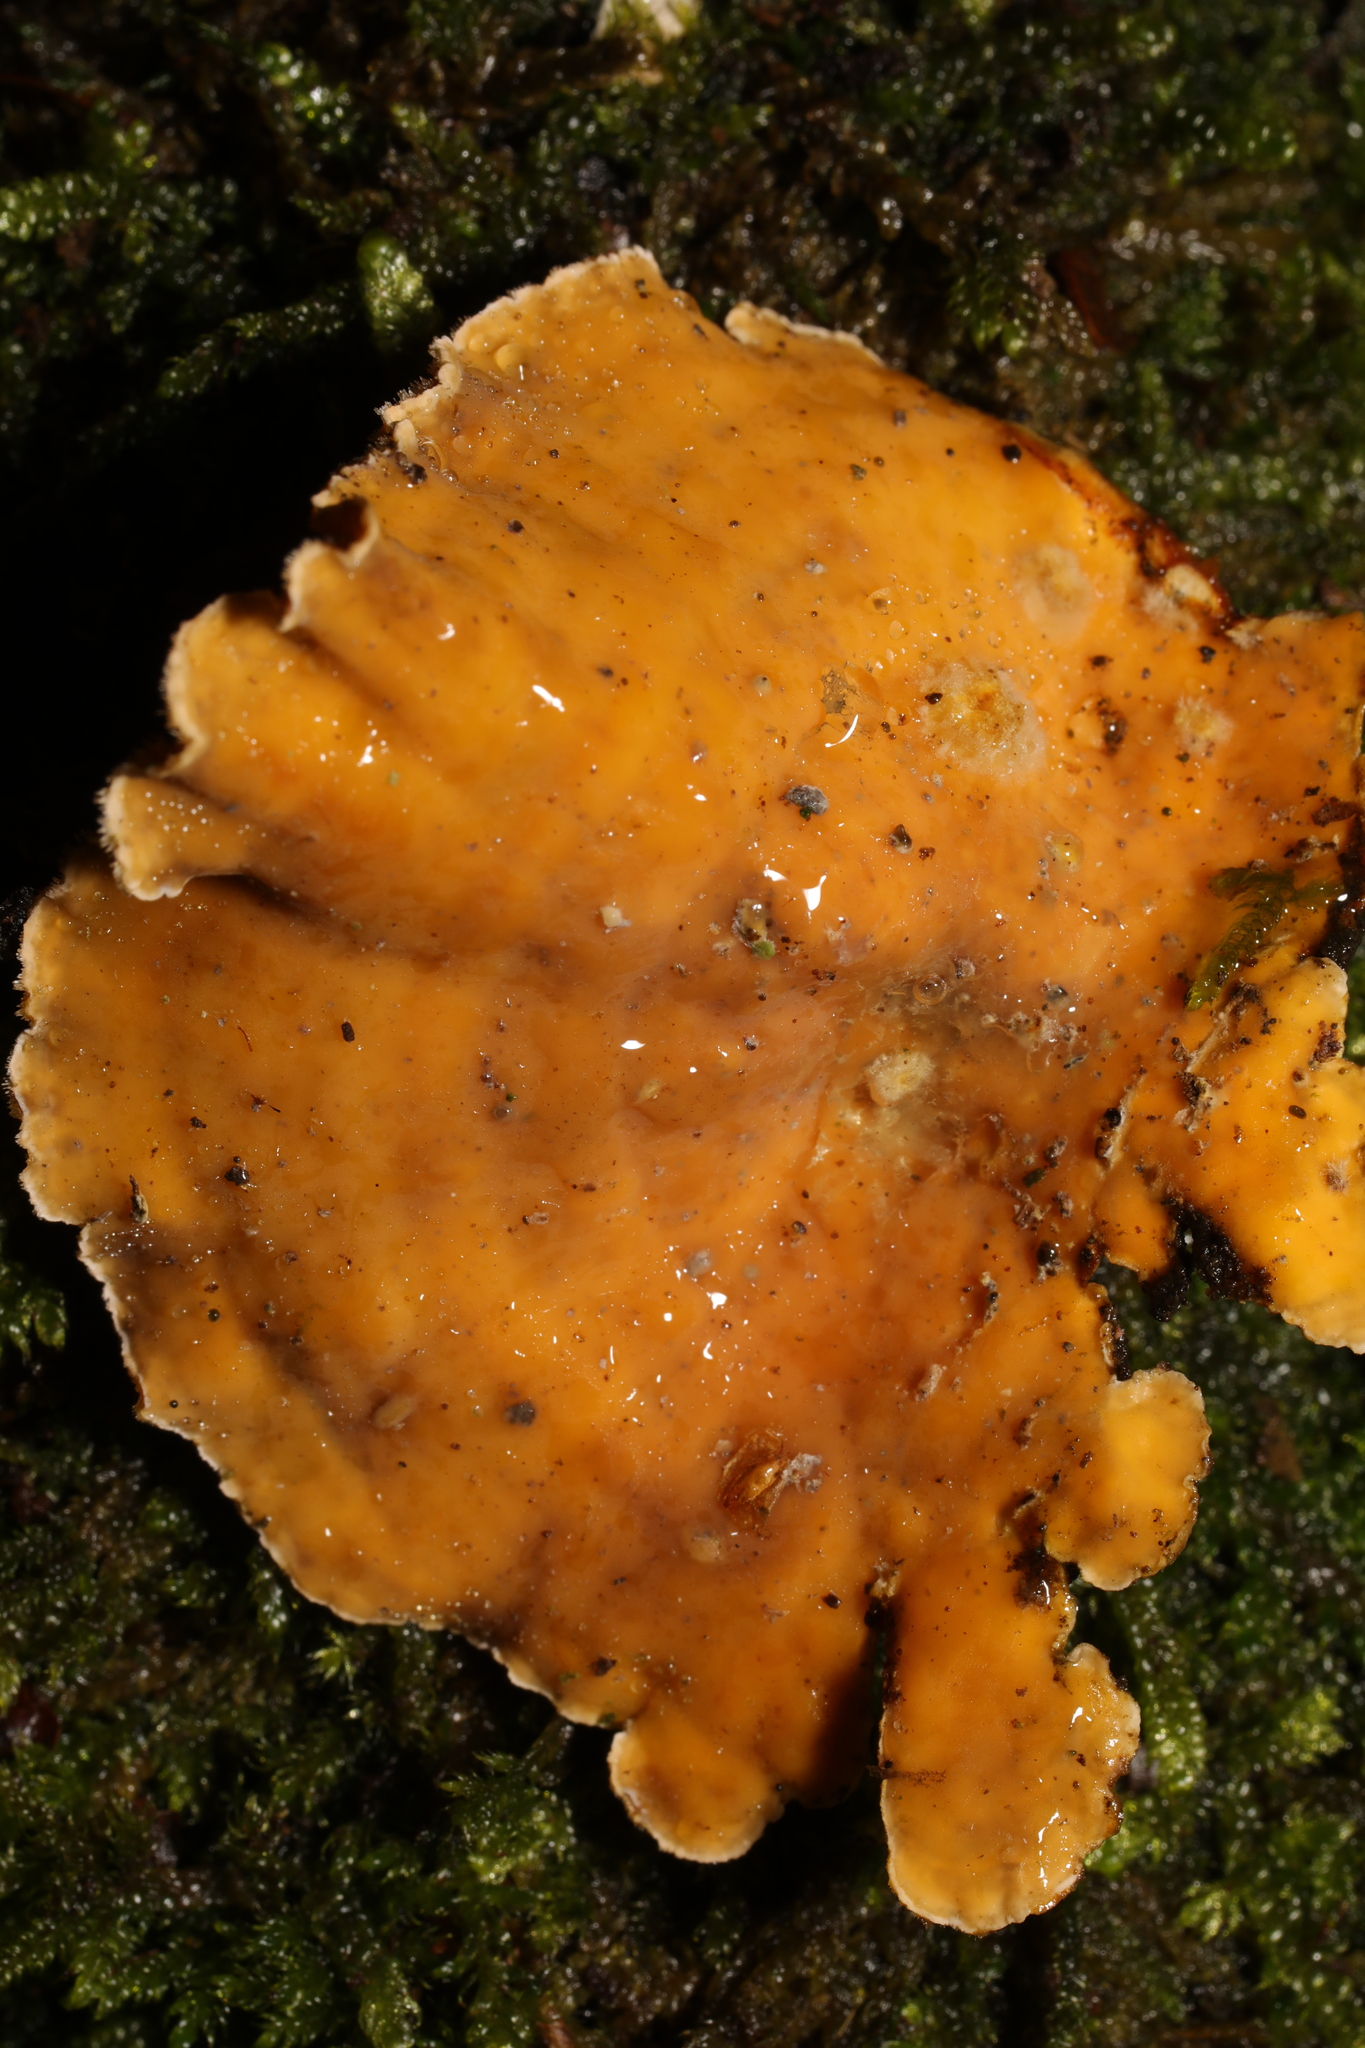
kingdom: Fungi
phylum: Basidiomycota
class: Agaricomycetes
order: Russulales
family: Stereaceae
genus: Stereum
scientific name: Stereum hirsutum
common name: Hairy curtain crust
